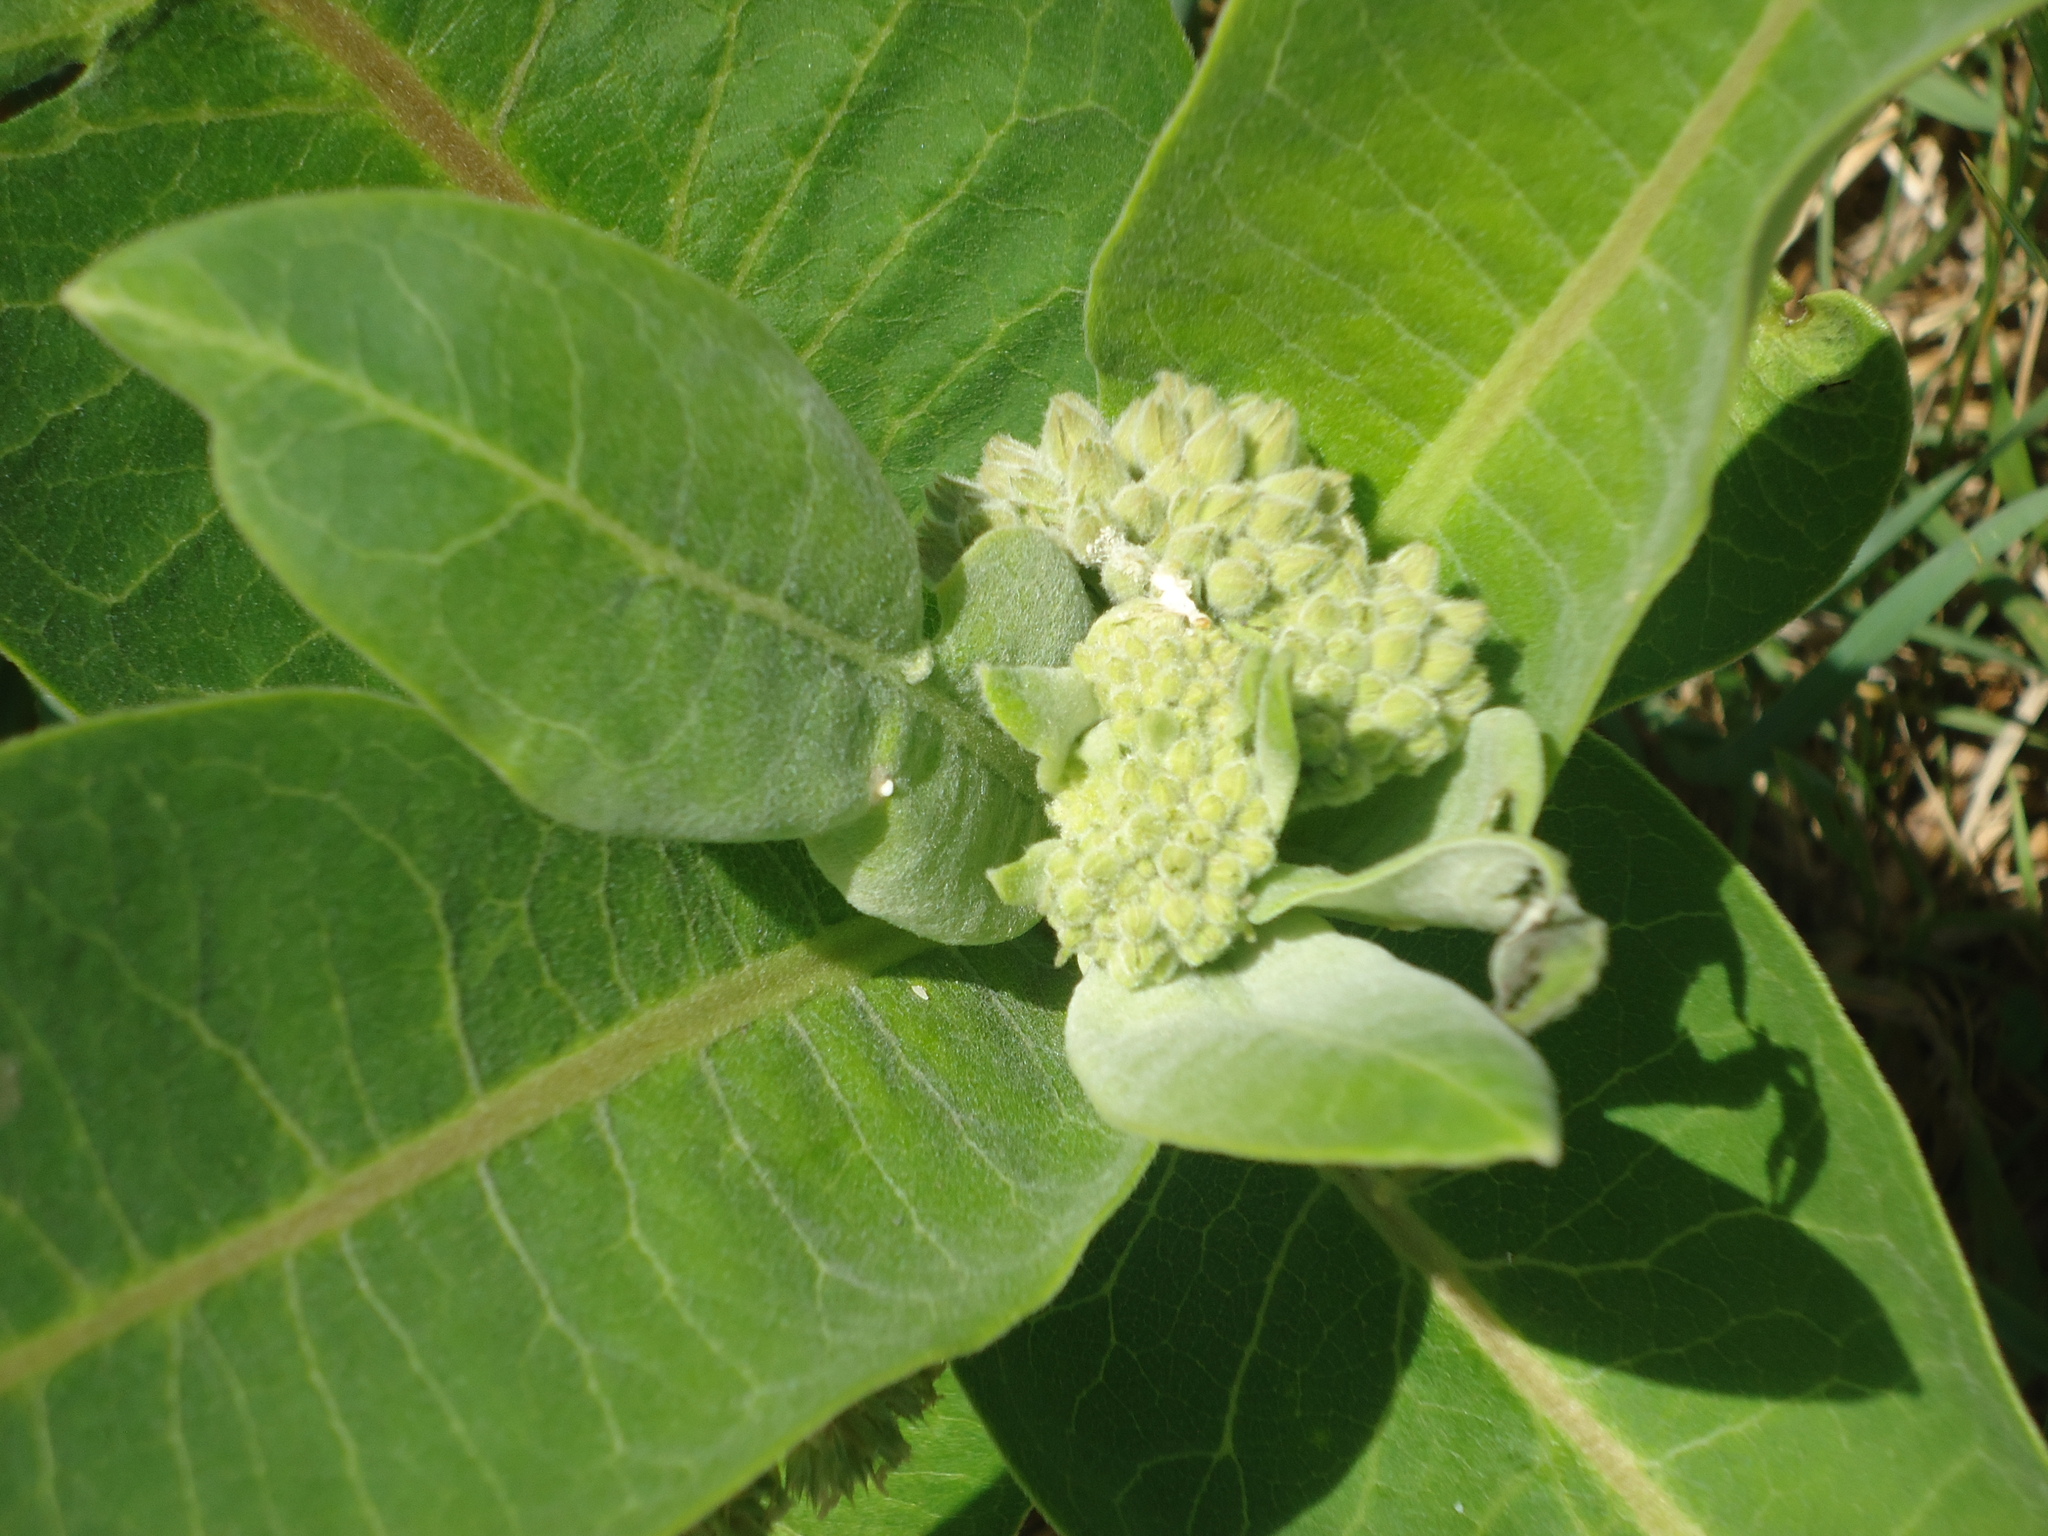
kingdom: Plantae
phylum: Tracheophyta
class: Magnoliopsida
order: Gentianales
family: Apocynaceae
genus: Asclepias
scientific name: Asclepias syriaca
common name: Common milkweed
